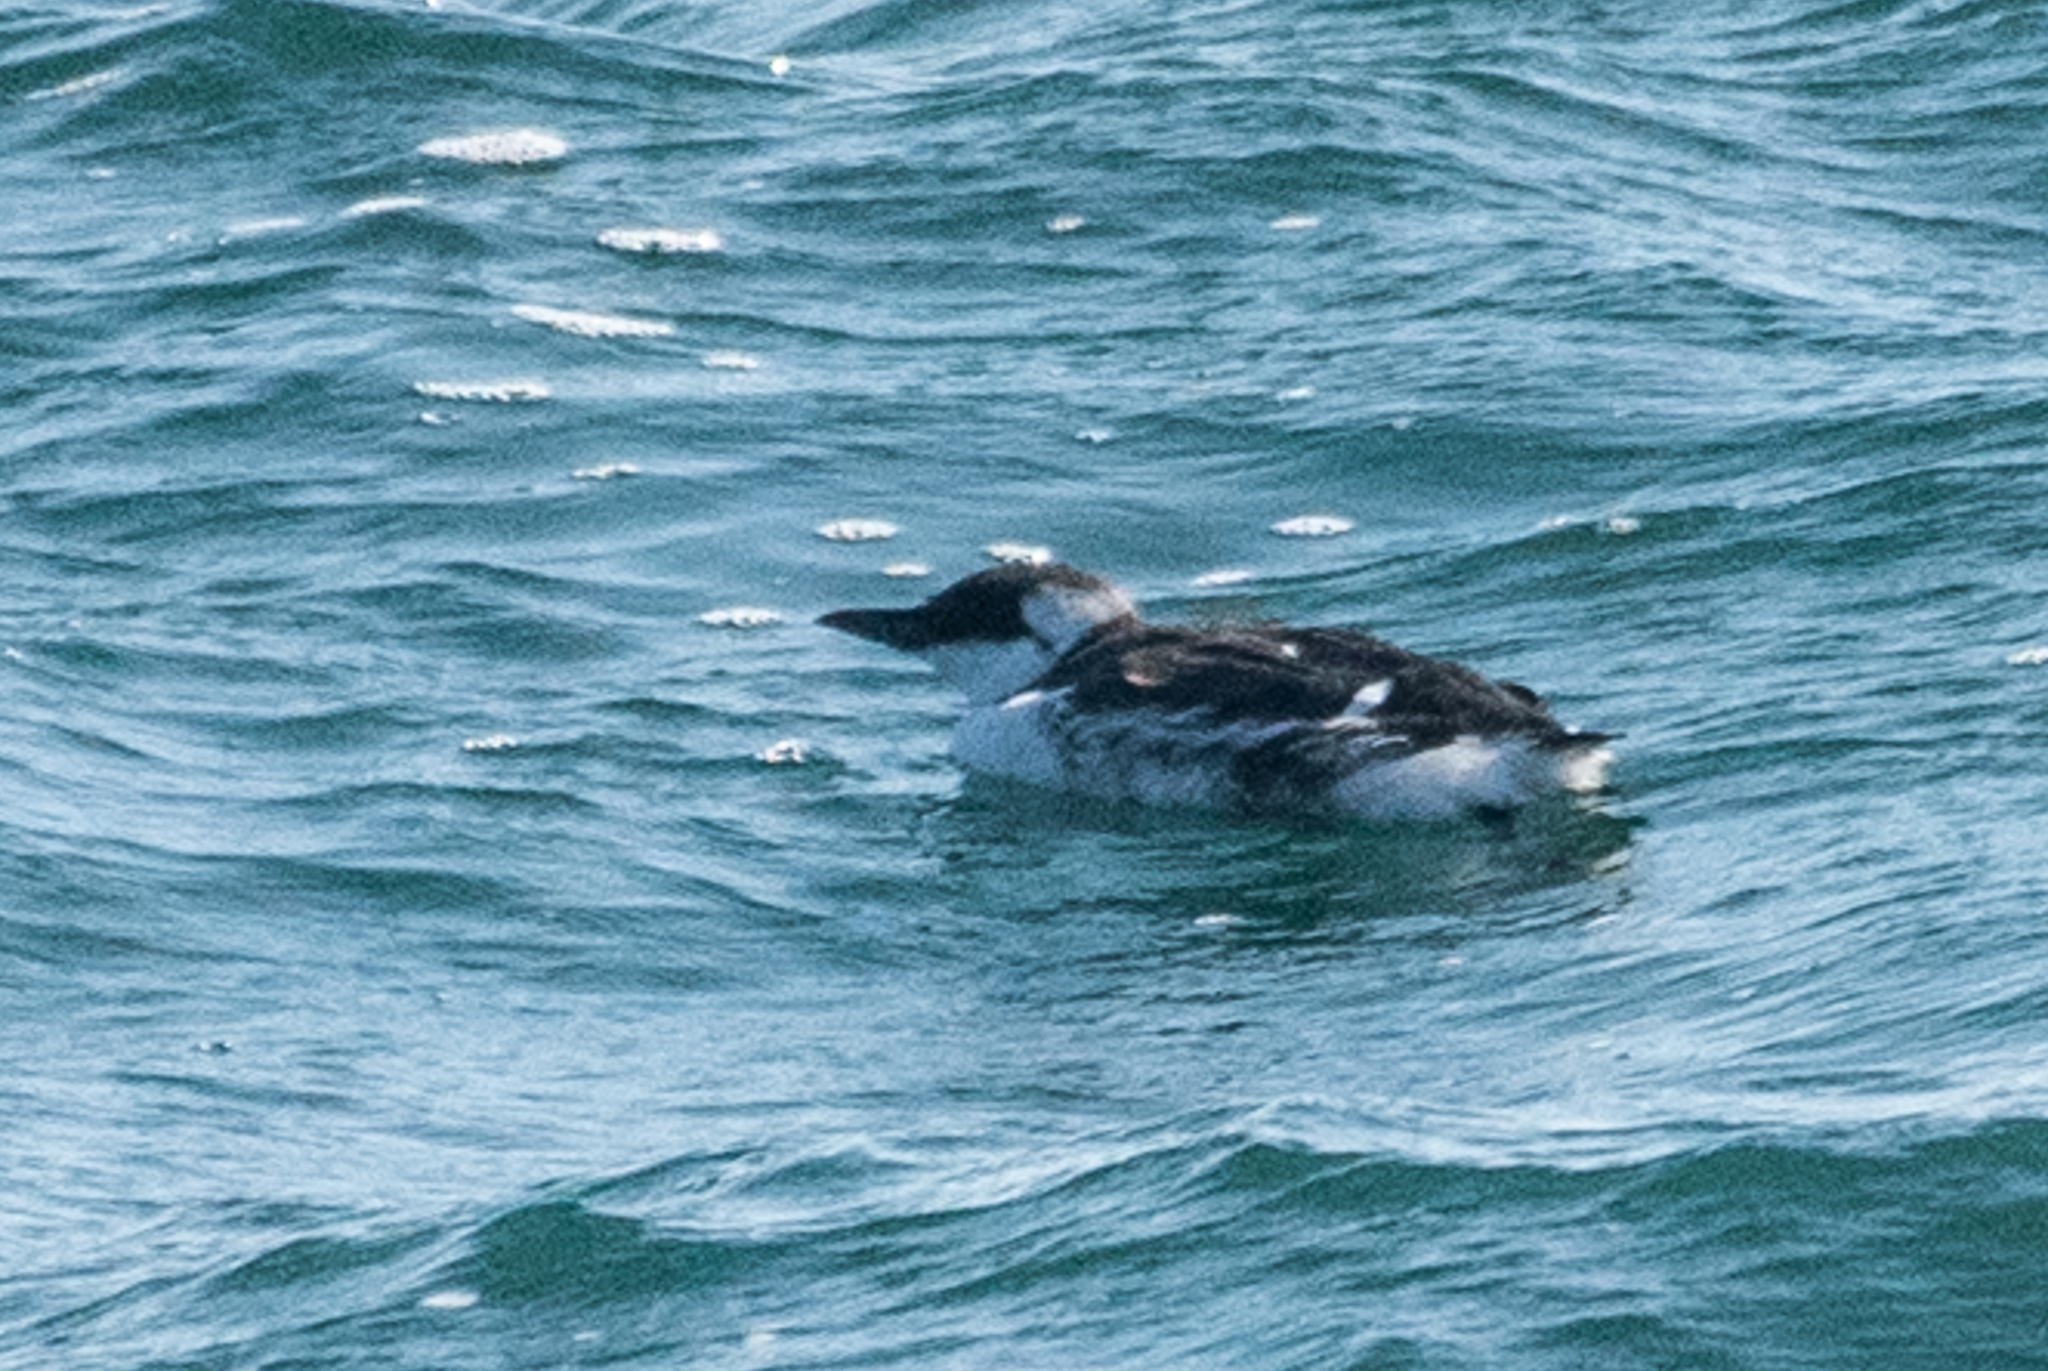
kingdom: Animalia
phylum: Chordata
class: Aves
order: Charadriiformes
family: Alcidae
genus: Uria
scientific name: Uria aalge
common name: Common murre
